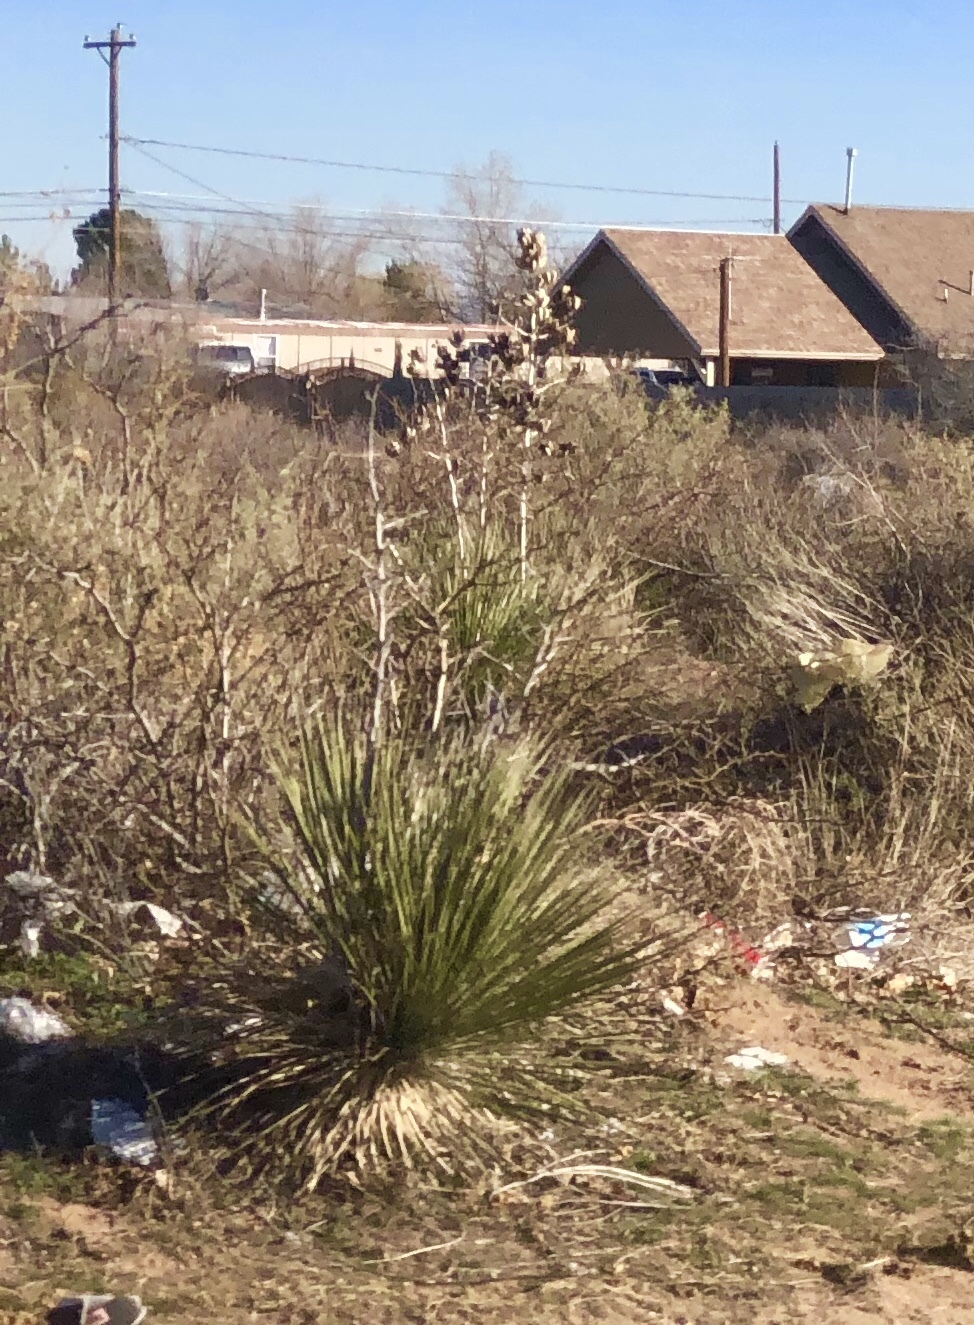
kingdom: Plantae
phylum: Tracheophyta
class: Liliopsida
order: Asparagales
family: Asparagaceae
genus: Yucca
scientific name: Yucca elata
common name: Palmella
